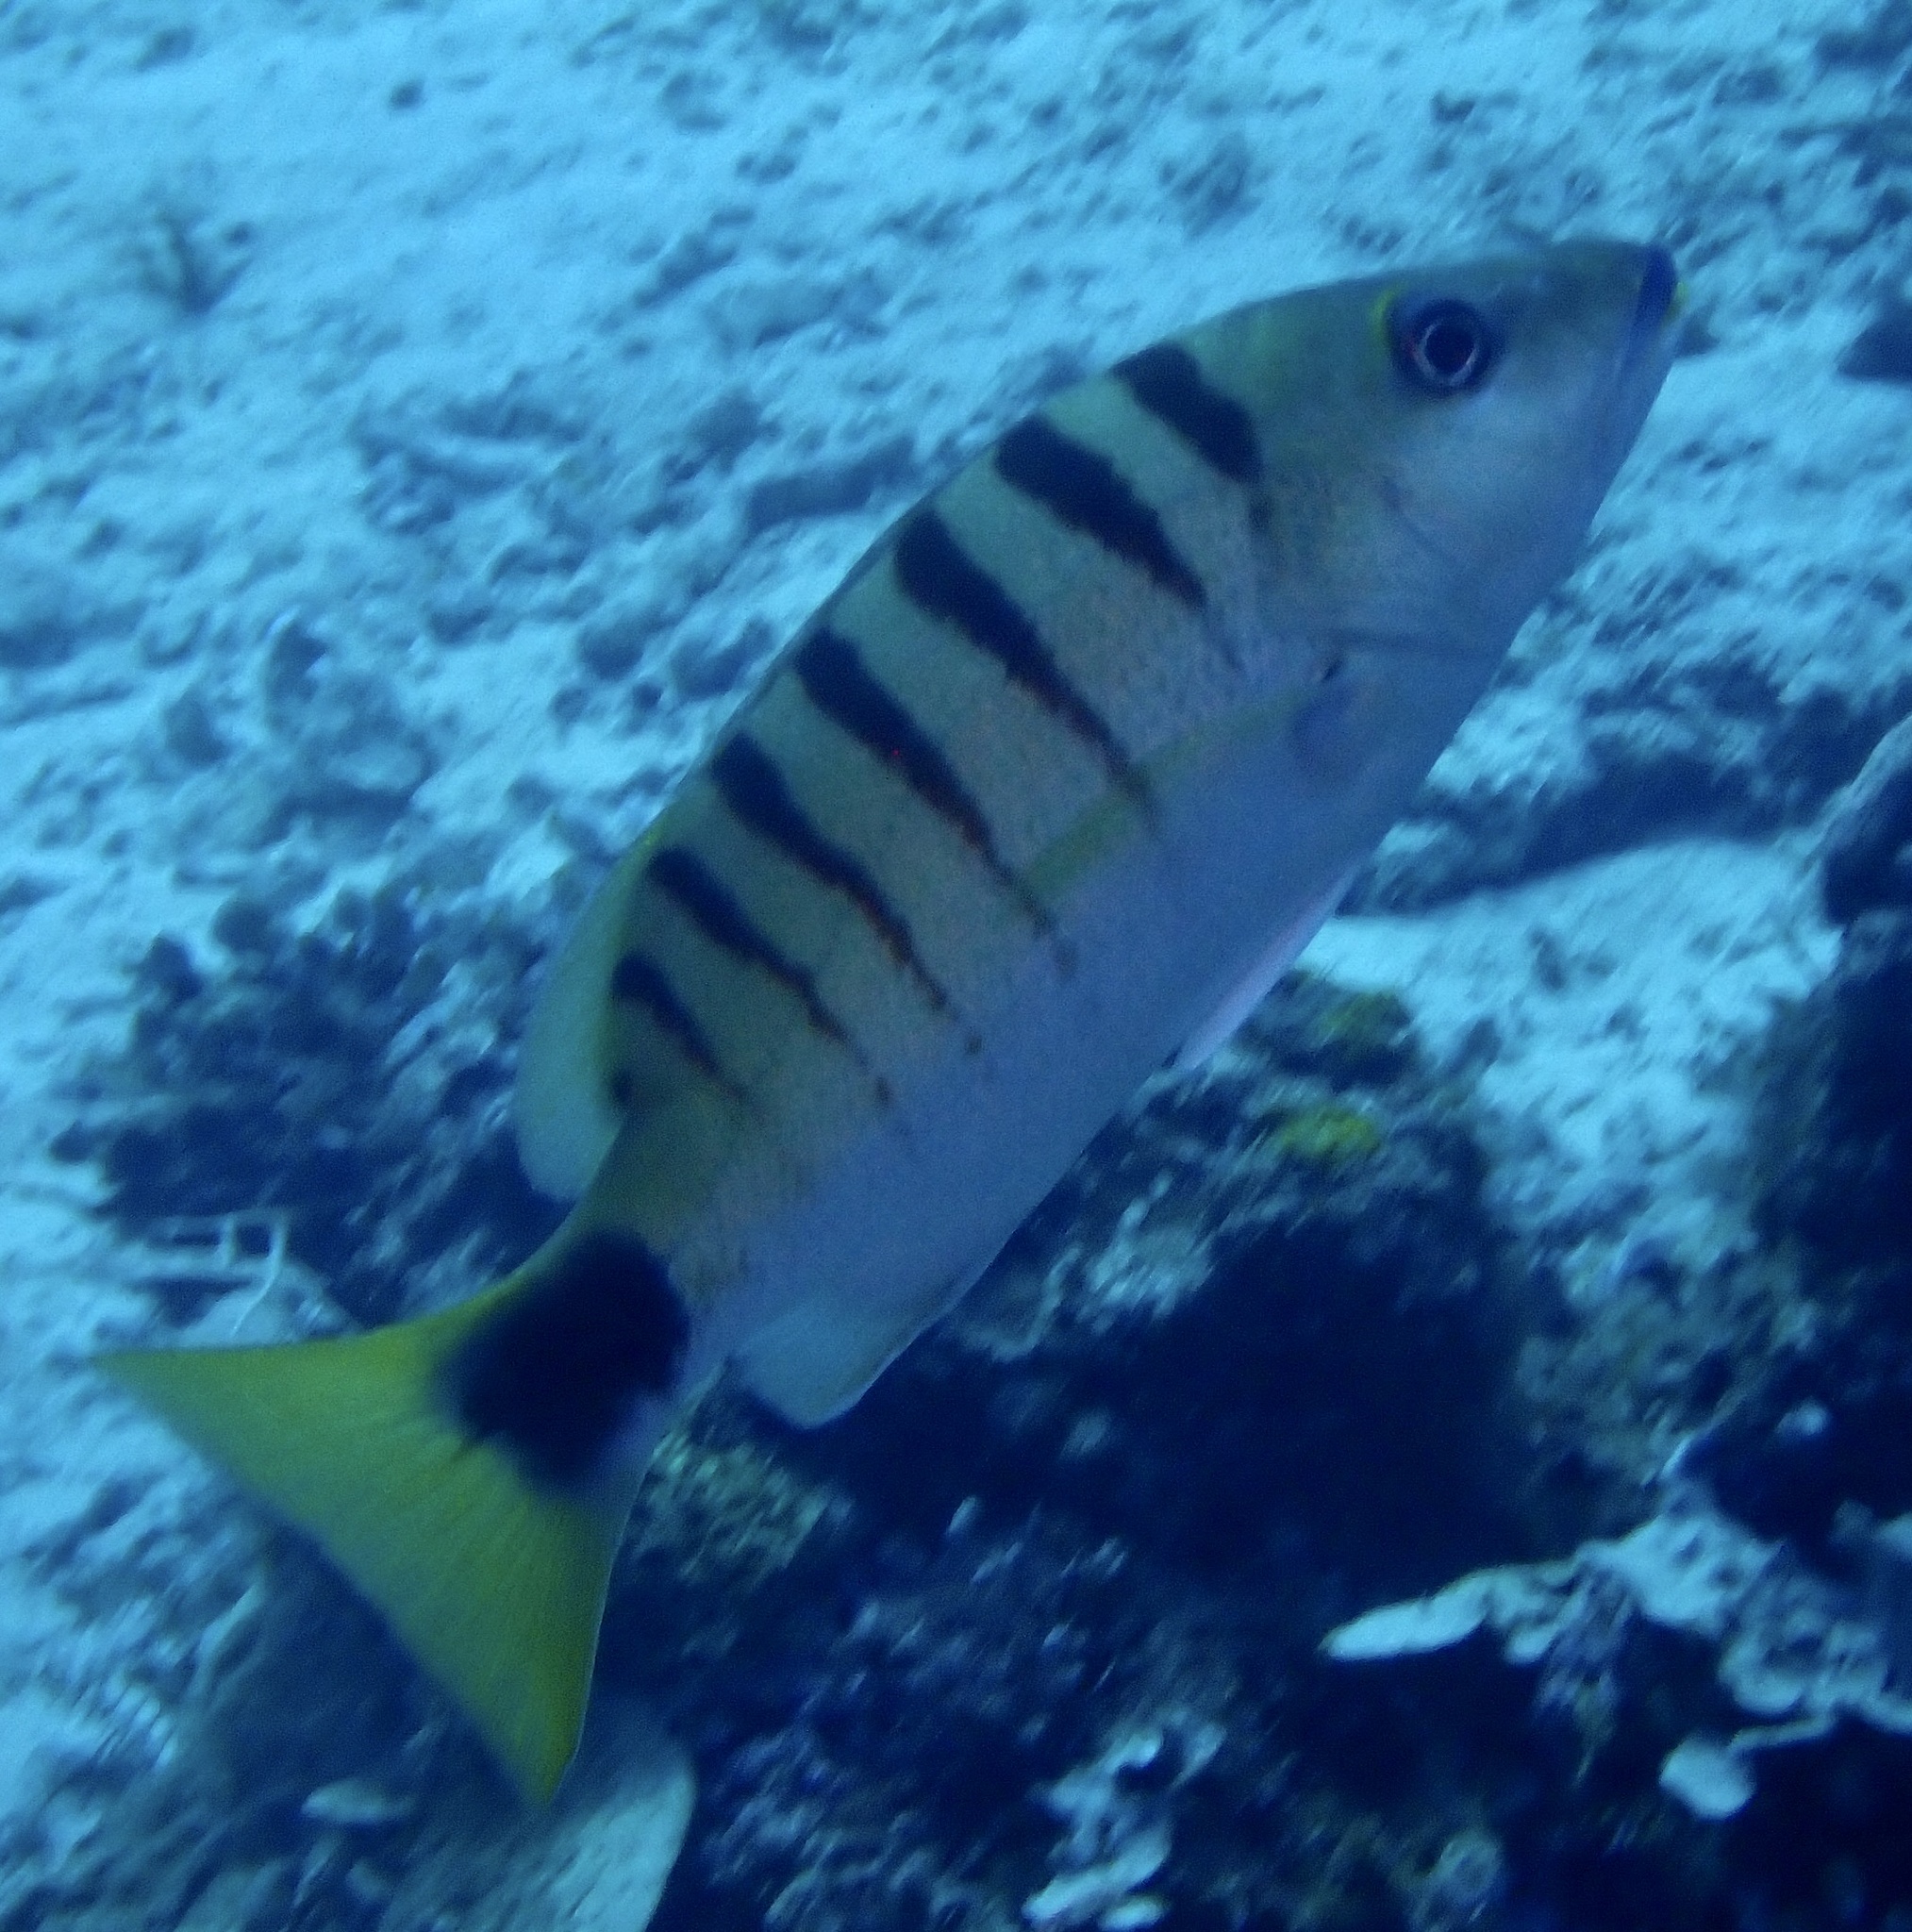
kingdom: Animalia
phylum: Chordata
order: Perciformes
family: Lutjanidae
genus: Lutjanus
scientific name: Lutjanus semicinctus
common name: Half-barred snapper
